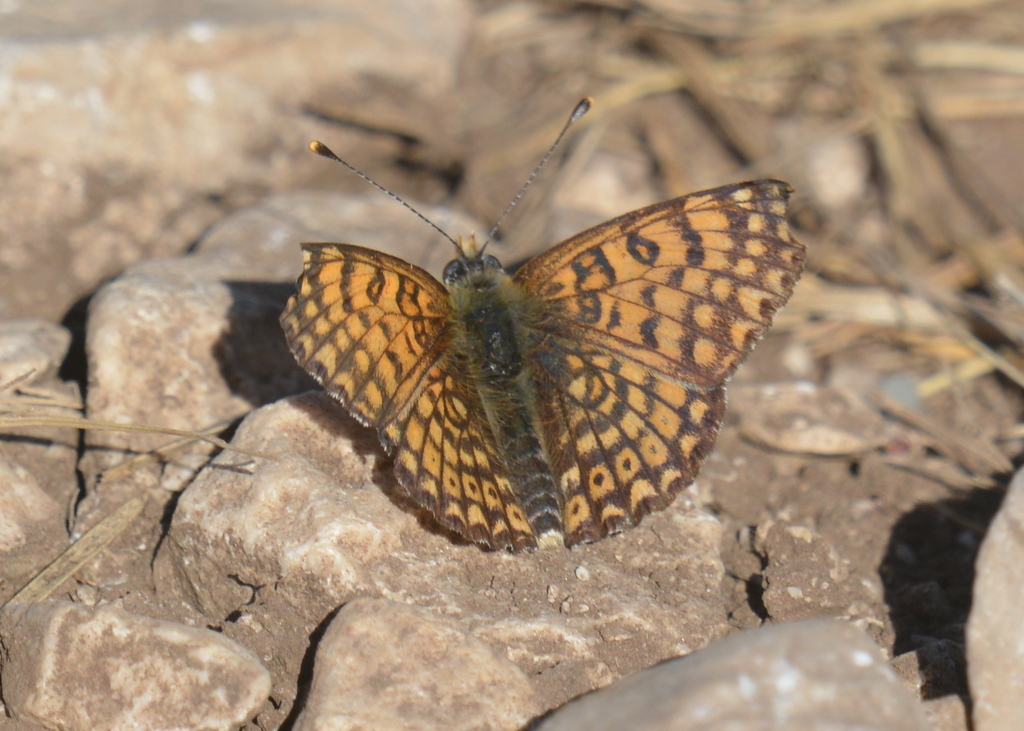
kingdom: Animalia
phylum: Arthropoda
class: Insecta
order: Lepidoptera
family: Nymphalidae
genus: Melitaea
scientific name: Melitaea cinxia
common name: Glanville fritillary
